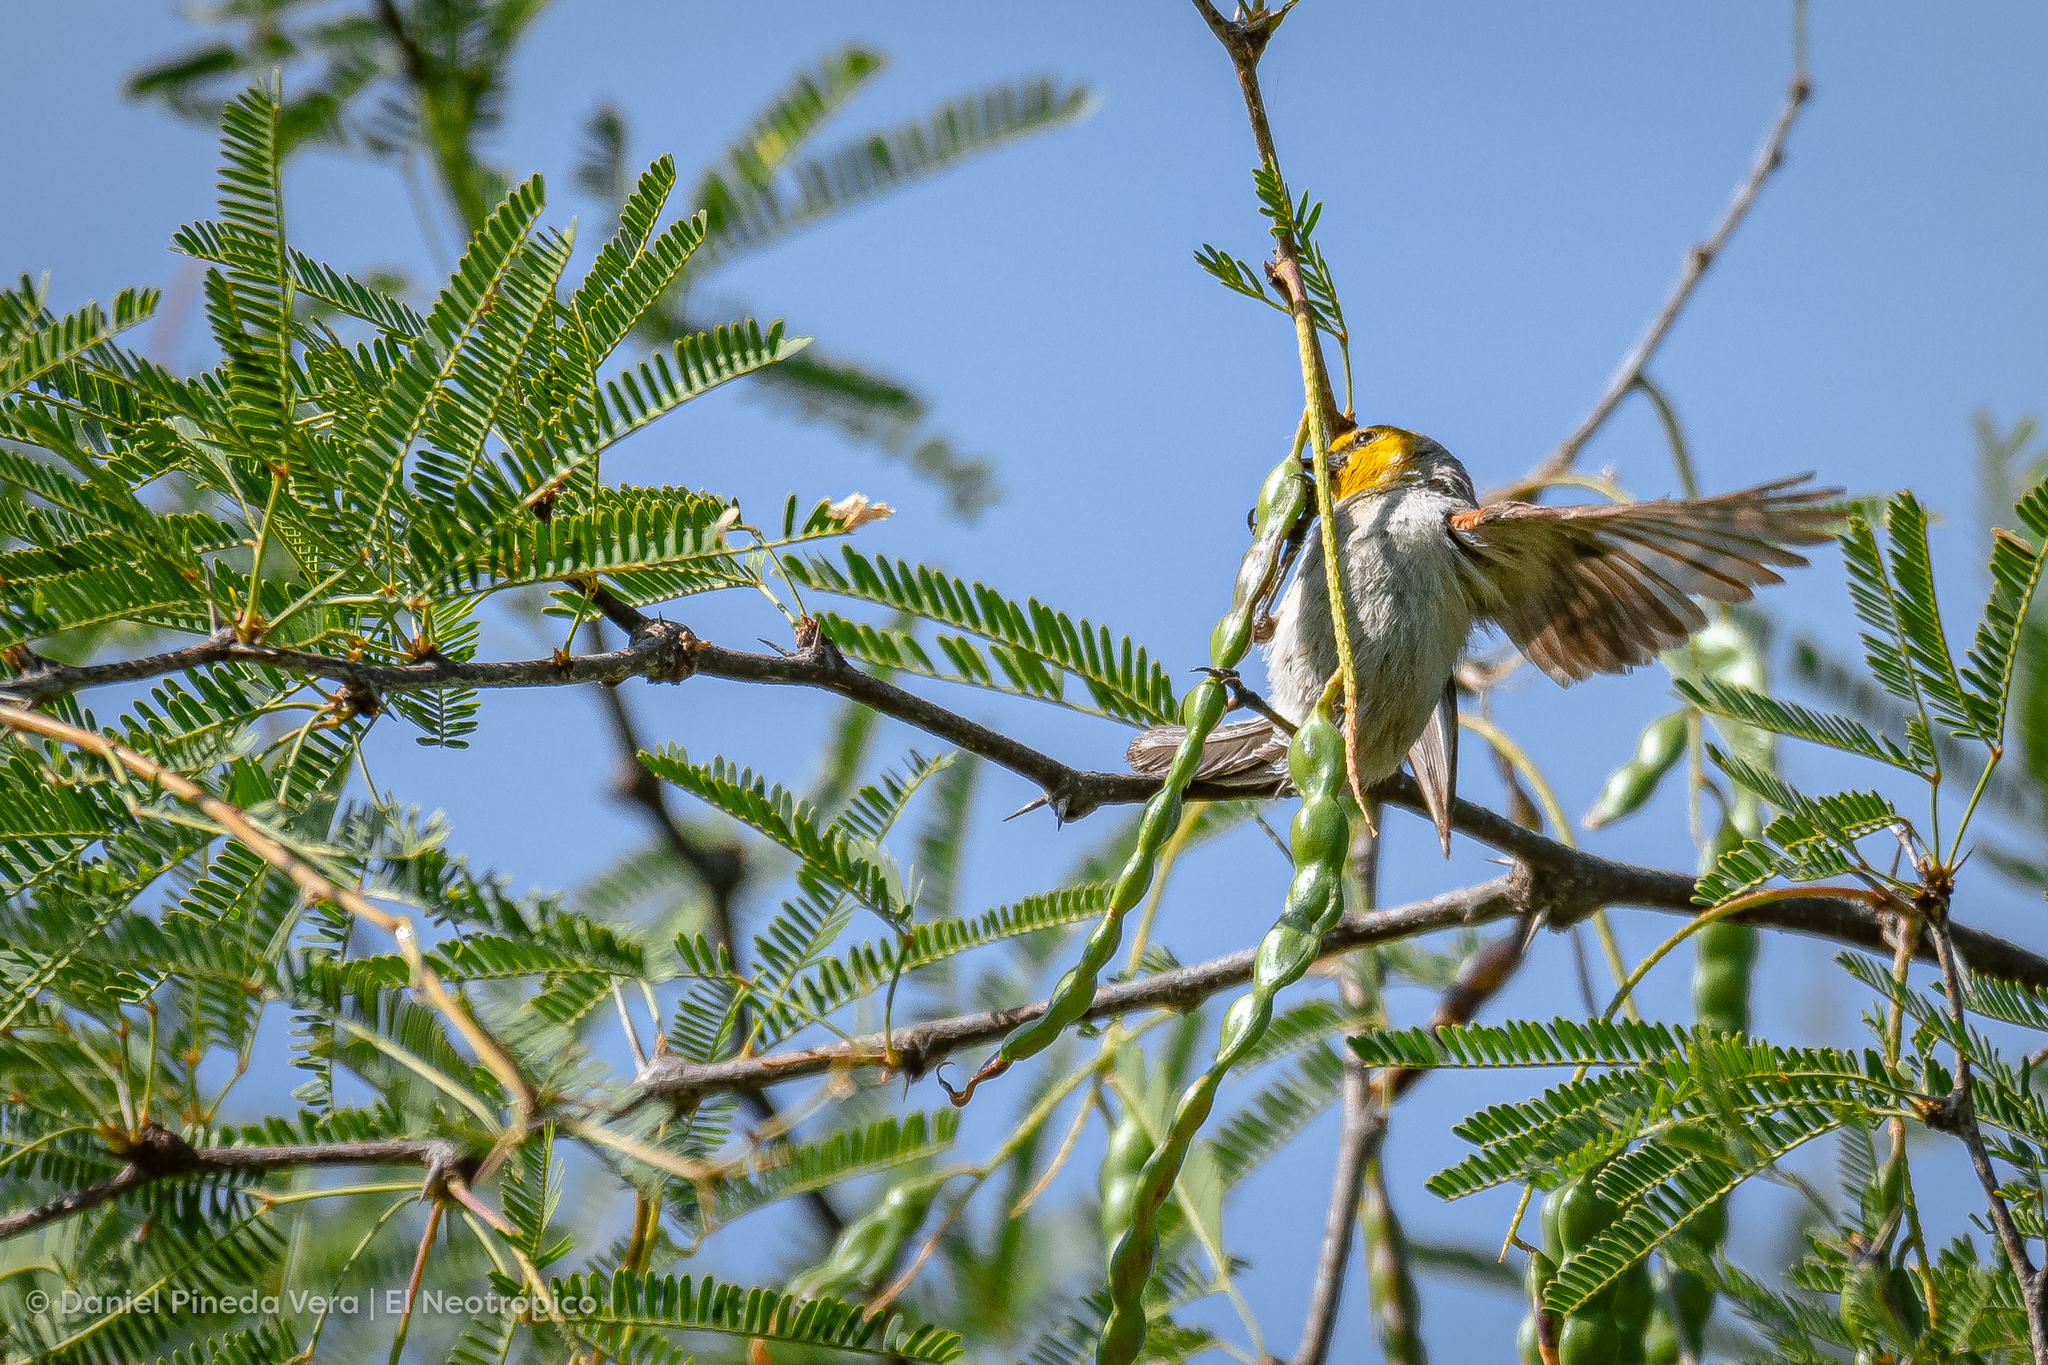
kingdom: Animalia
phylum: Chordata
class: Aves
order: Passeriformes
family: Remizidae
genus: Auriparus
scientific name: Auriparus flaviceps
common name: Verdin
